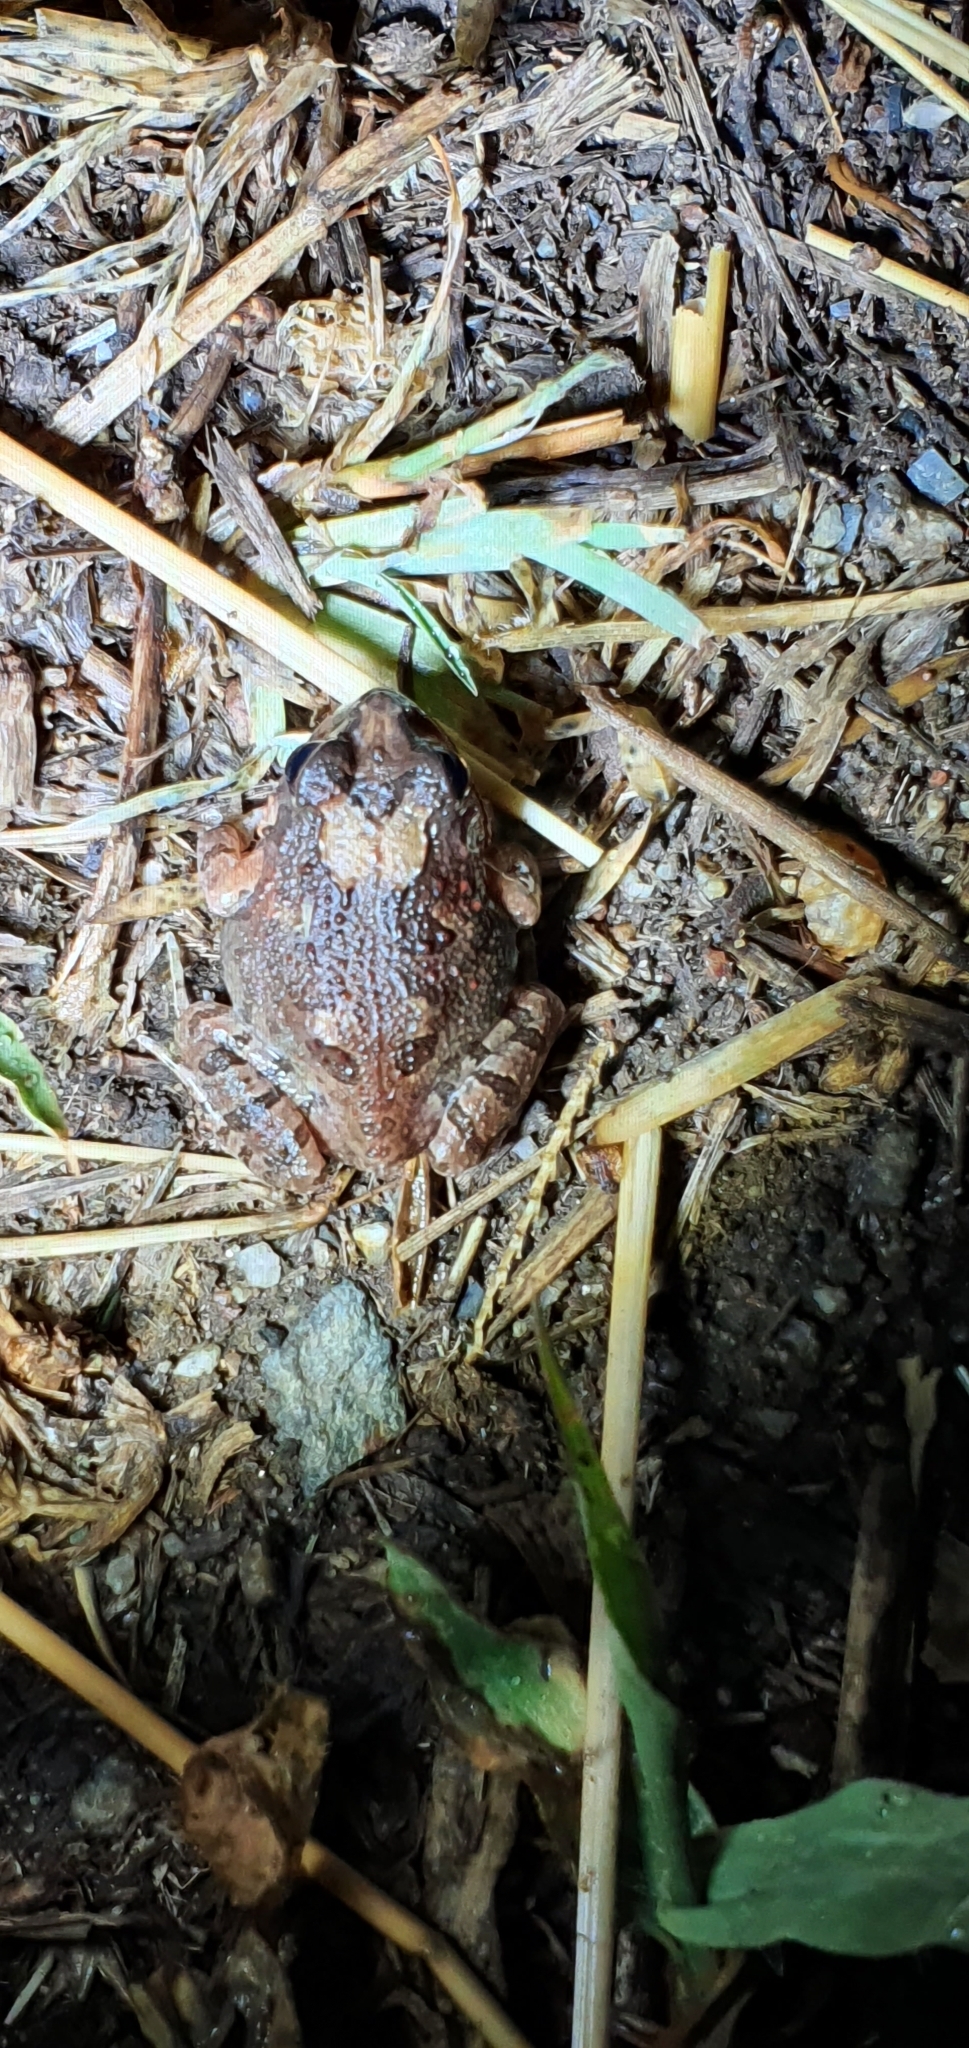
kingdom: Animalia
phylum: Chordata
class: Amphibia
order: Anura
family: Limnodynastidae
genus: Platyplectrum
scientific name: Platyplectrum ornatum
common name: Ornate burrowing frog
